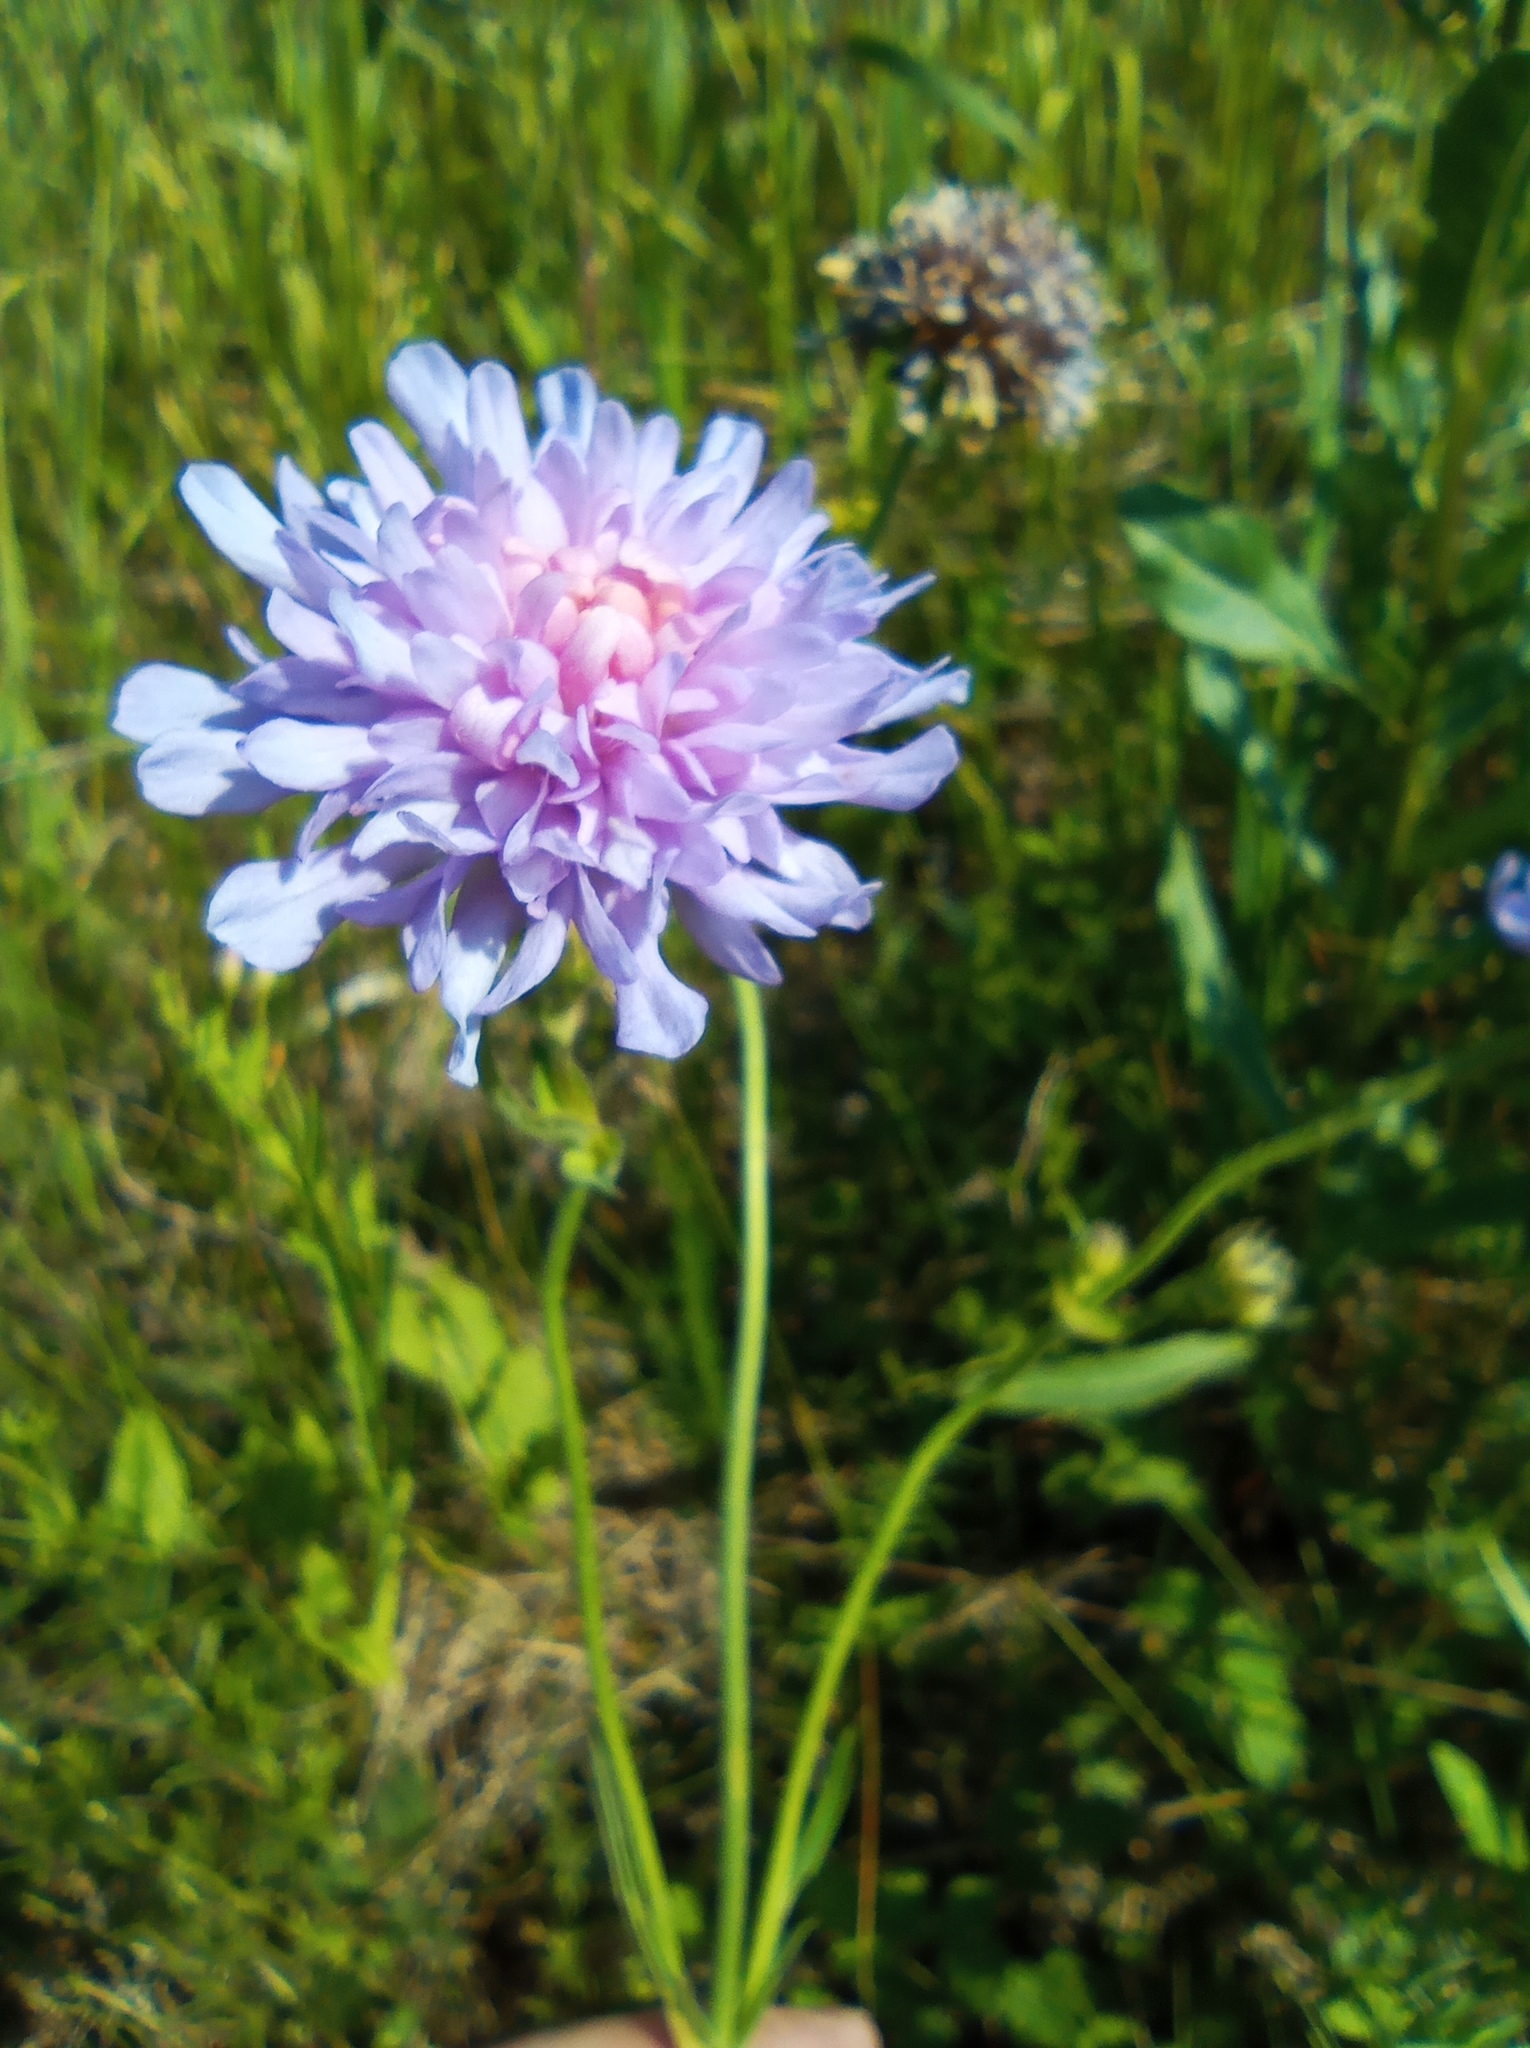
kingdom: Plantae
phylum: Tracheophyta
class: Magnoliopsida
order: Dipsacales
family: Caprifoliaceae
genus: Knautia
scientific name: Knautia arvensis
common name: Field scabiosa
